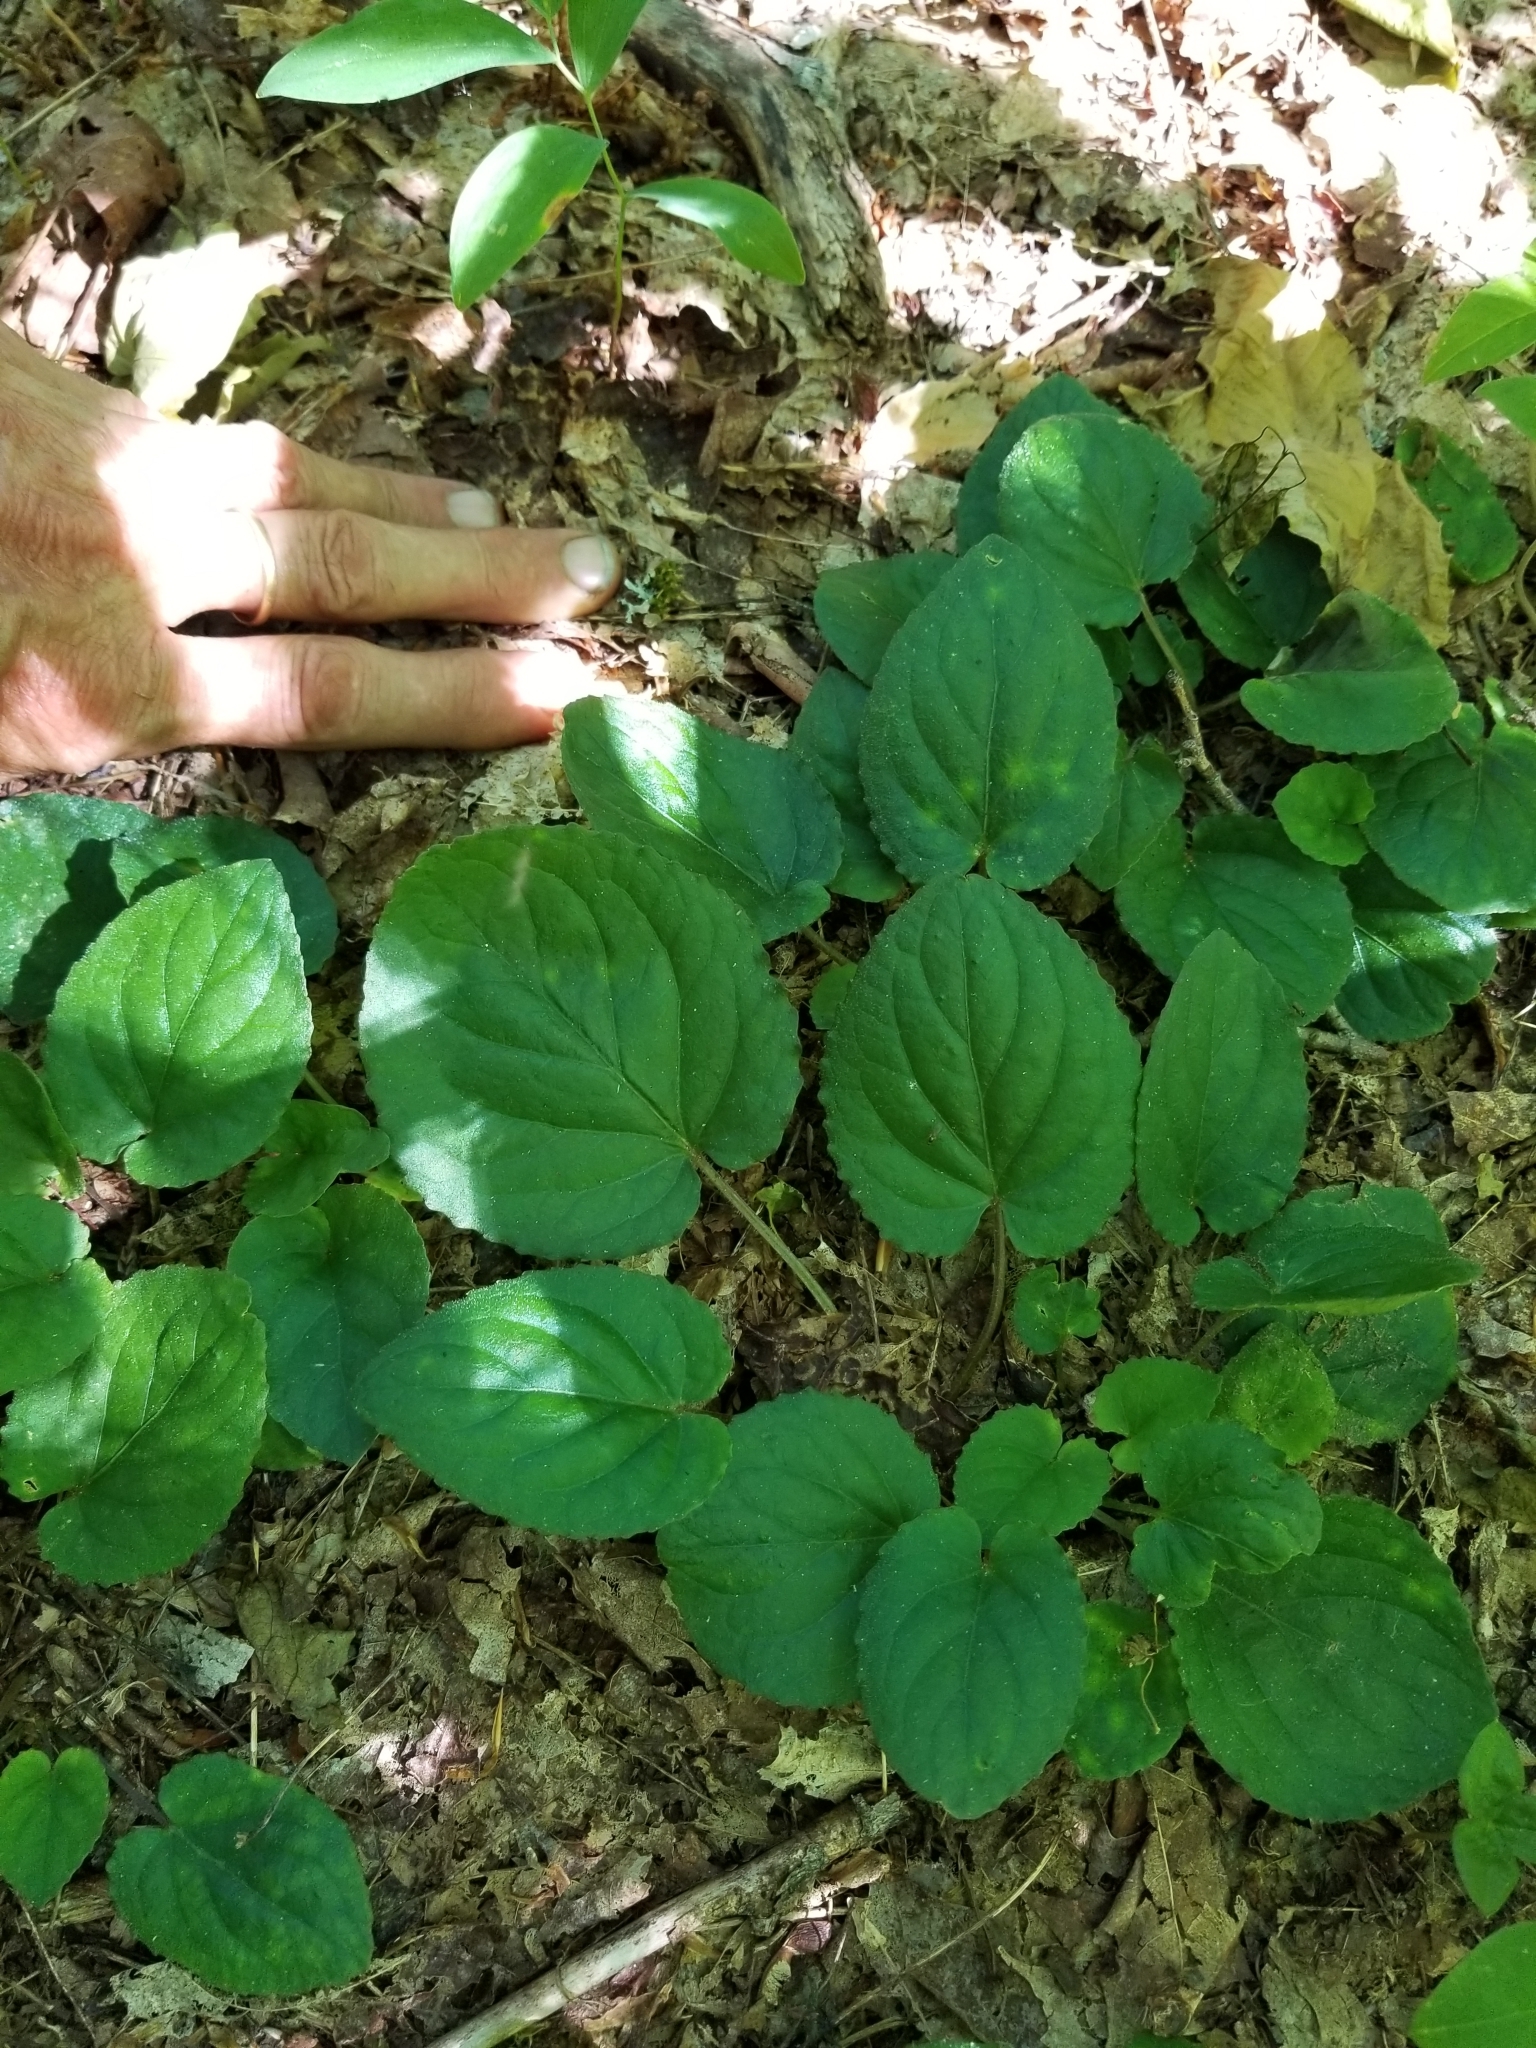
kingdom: Plantae
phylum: Tracheophyta
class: Magnoliopsida
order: Malpighiales
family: Violaceae
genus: Viola
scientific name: Viola rotundifolia
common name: Early yellow violet
